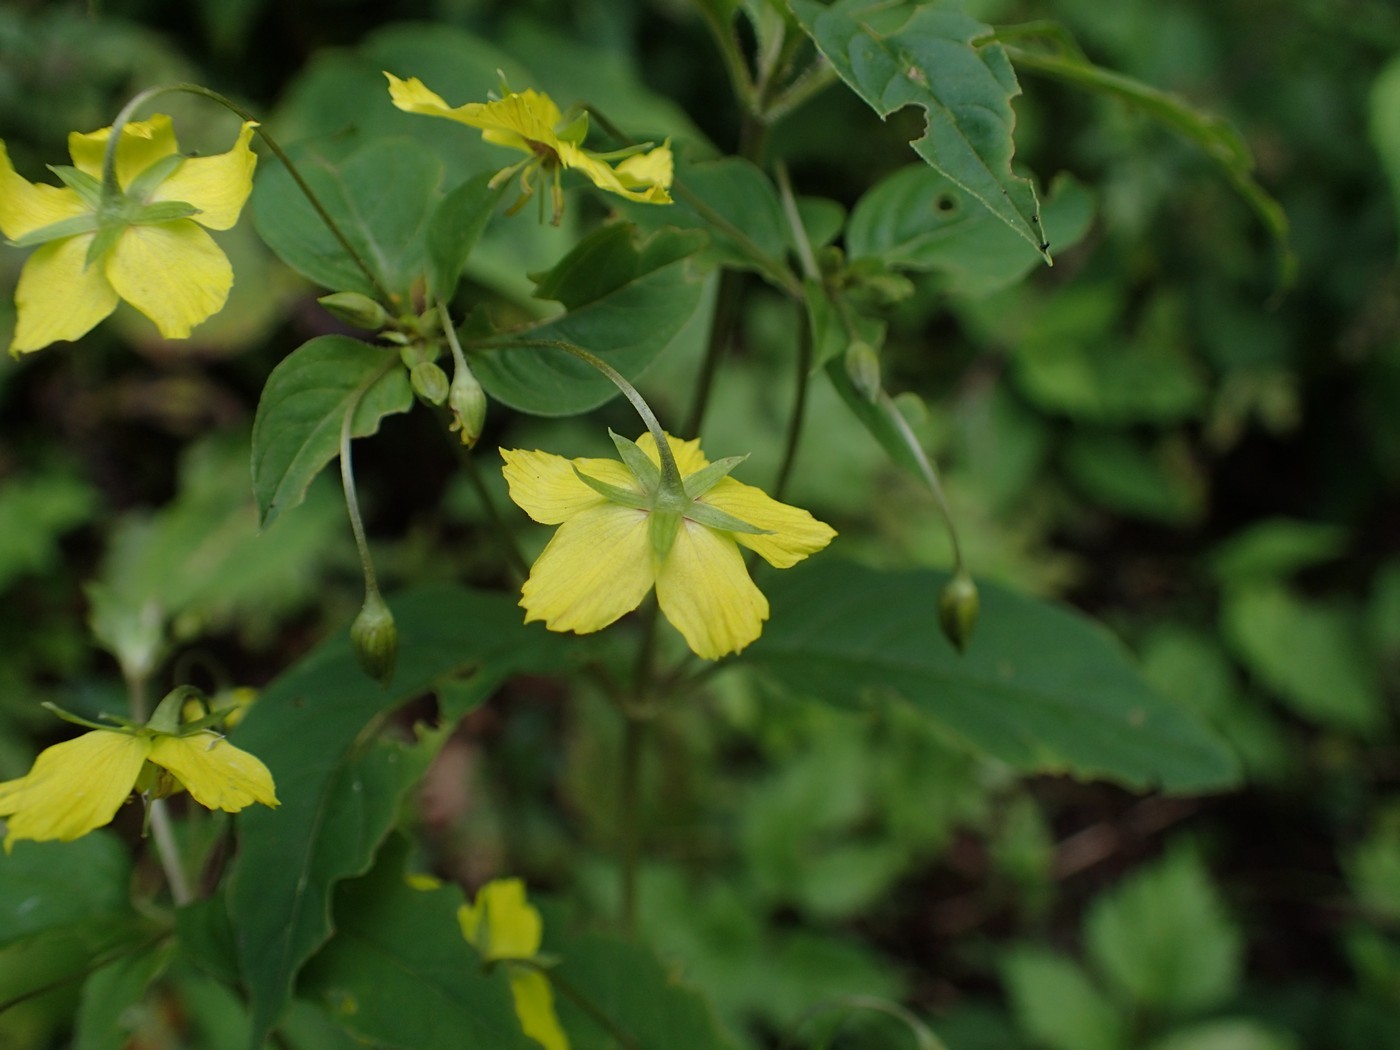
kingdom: Plantae
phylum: Tracheophyta
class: Magnoliopsida
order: Ericales
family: Primulaceae
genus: Lysimachia
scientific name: Lysimachia ciliata
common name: Fringed loosestrife
